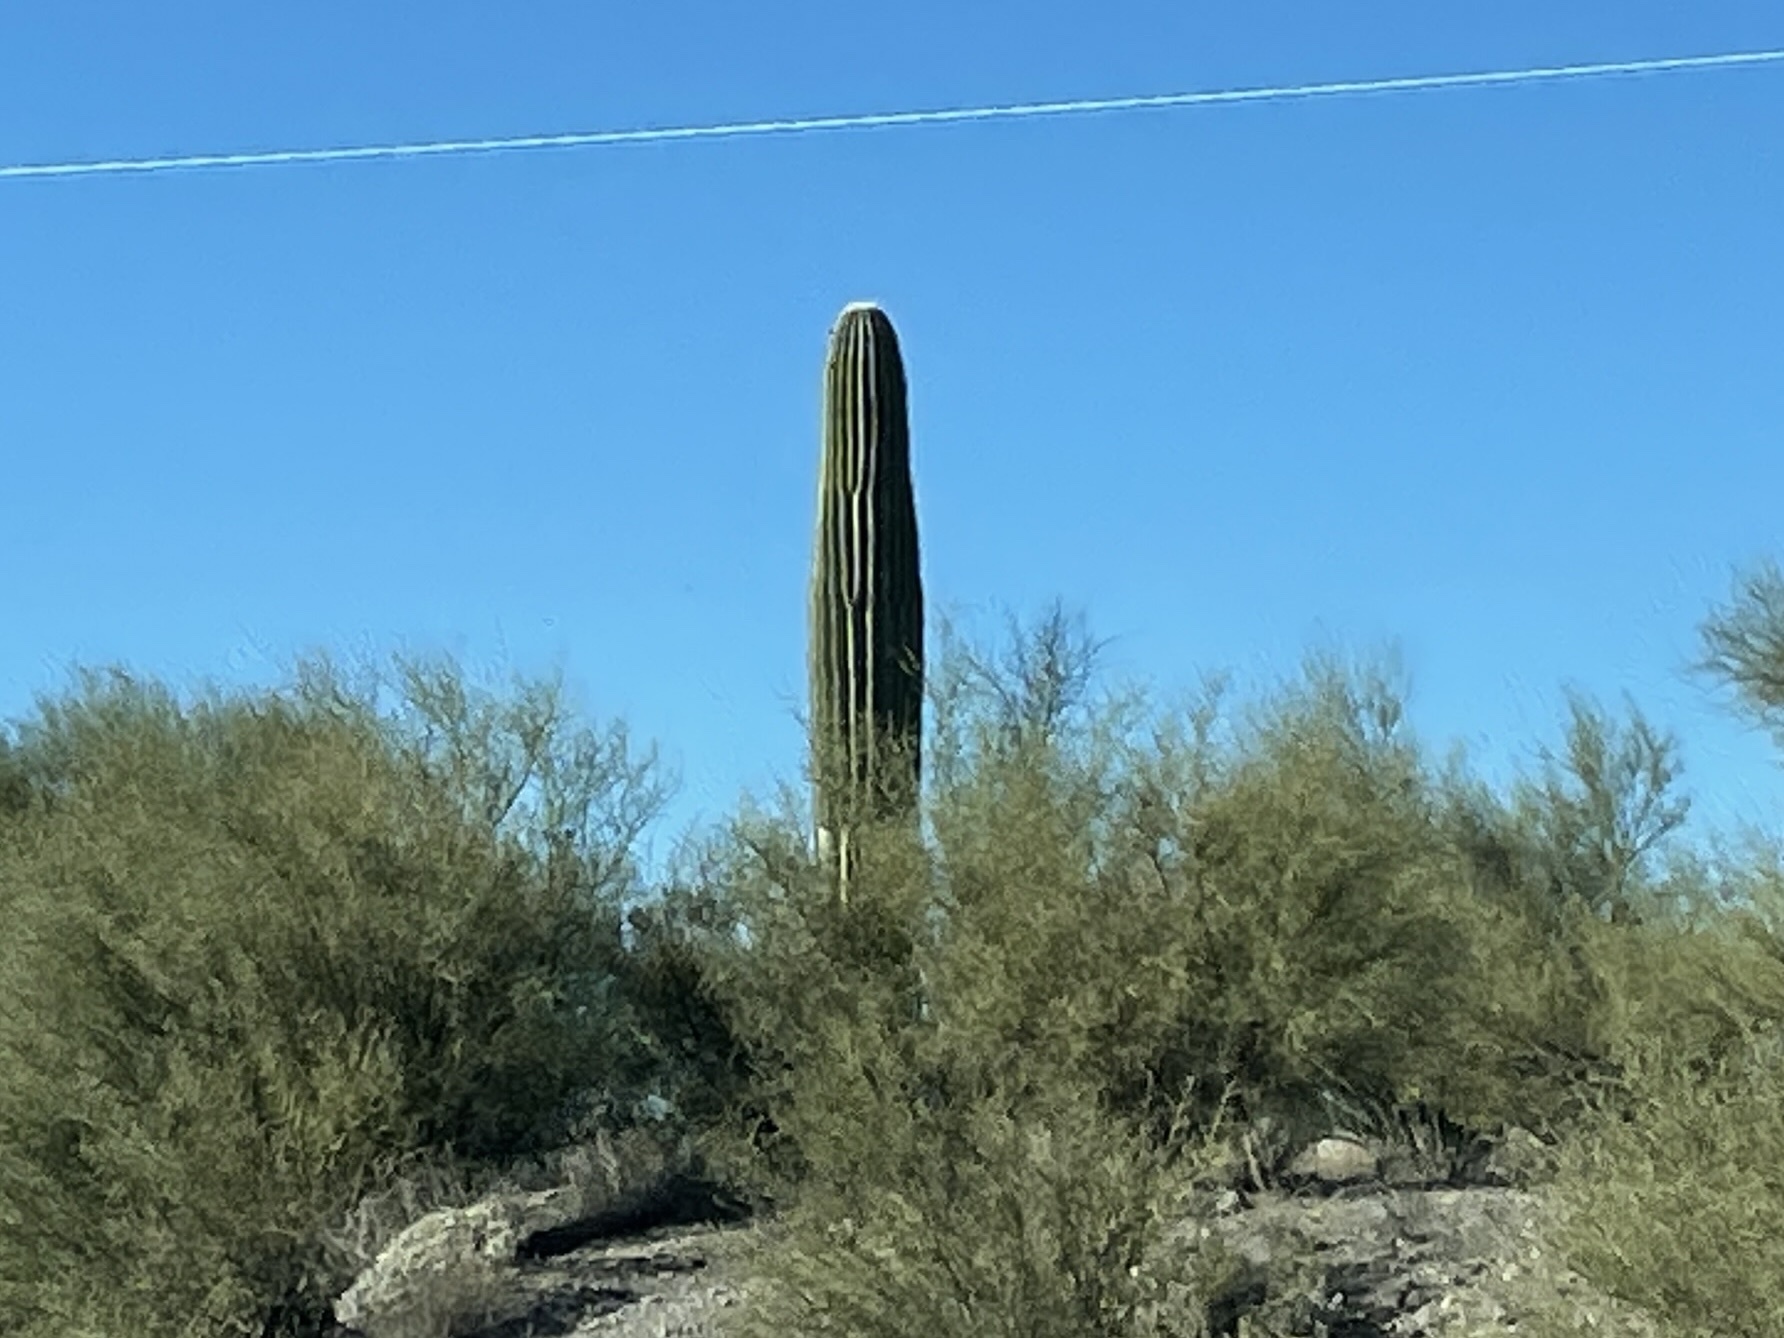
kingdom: Plantae
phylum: Tracheophyta
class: Magnoliopsida
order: Caryophyllales
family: Cactaceae
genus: Carnegiea
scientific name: Carnegiea gigantea
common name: Saguaro
